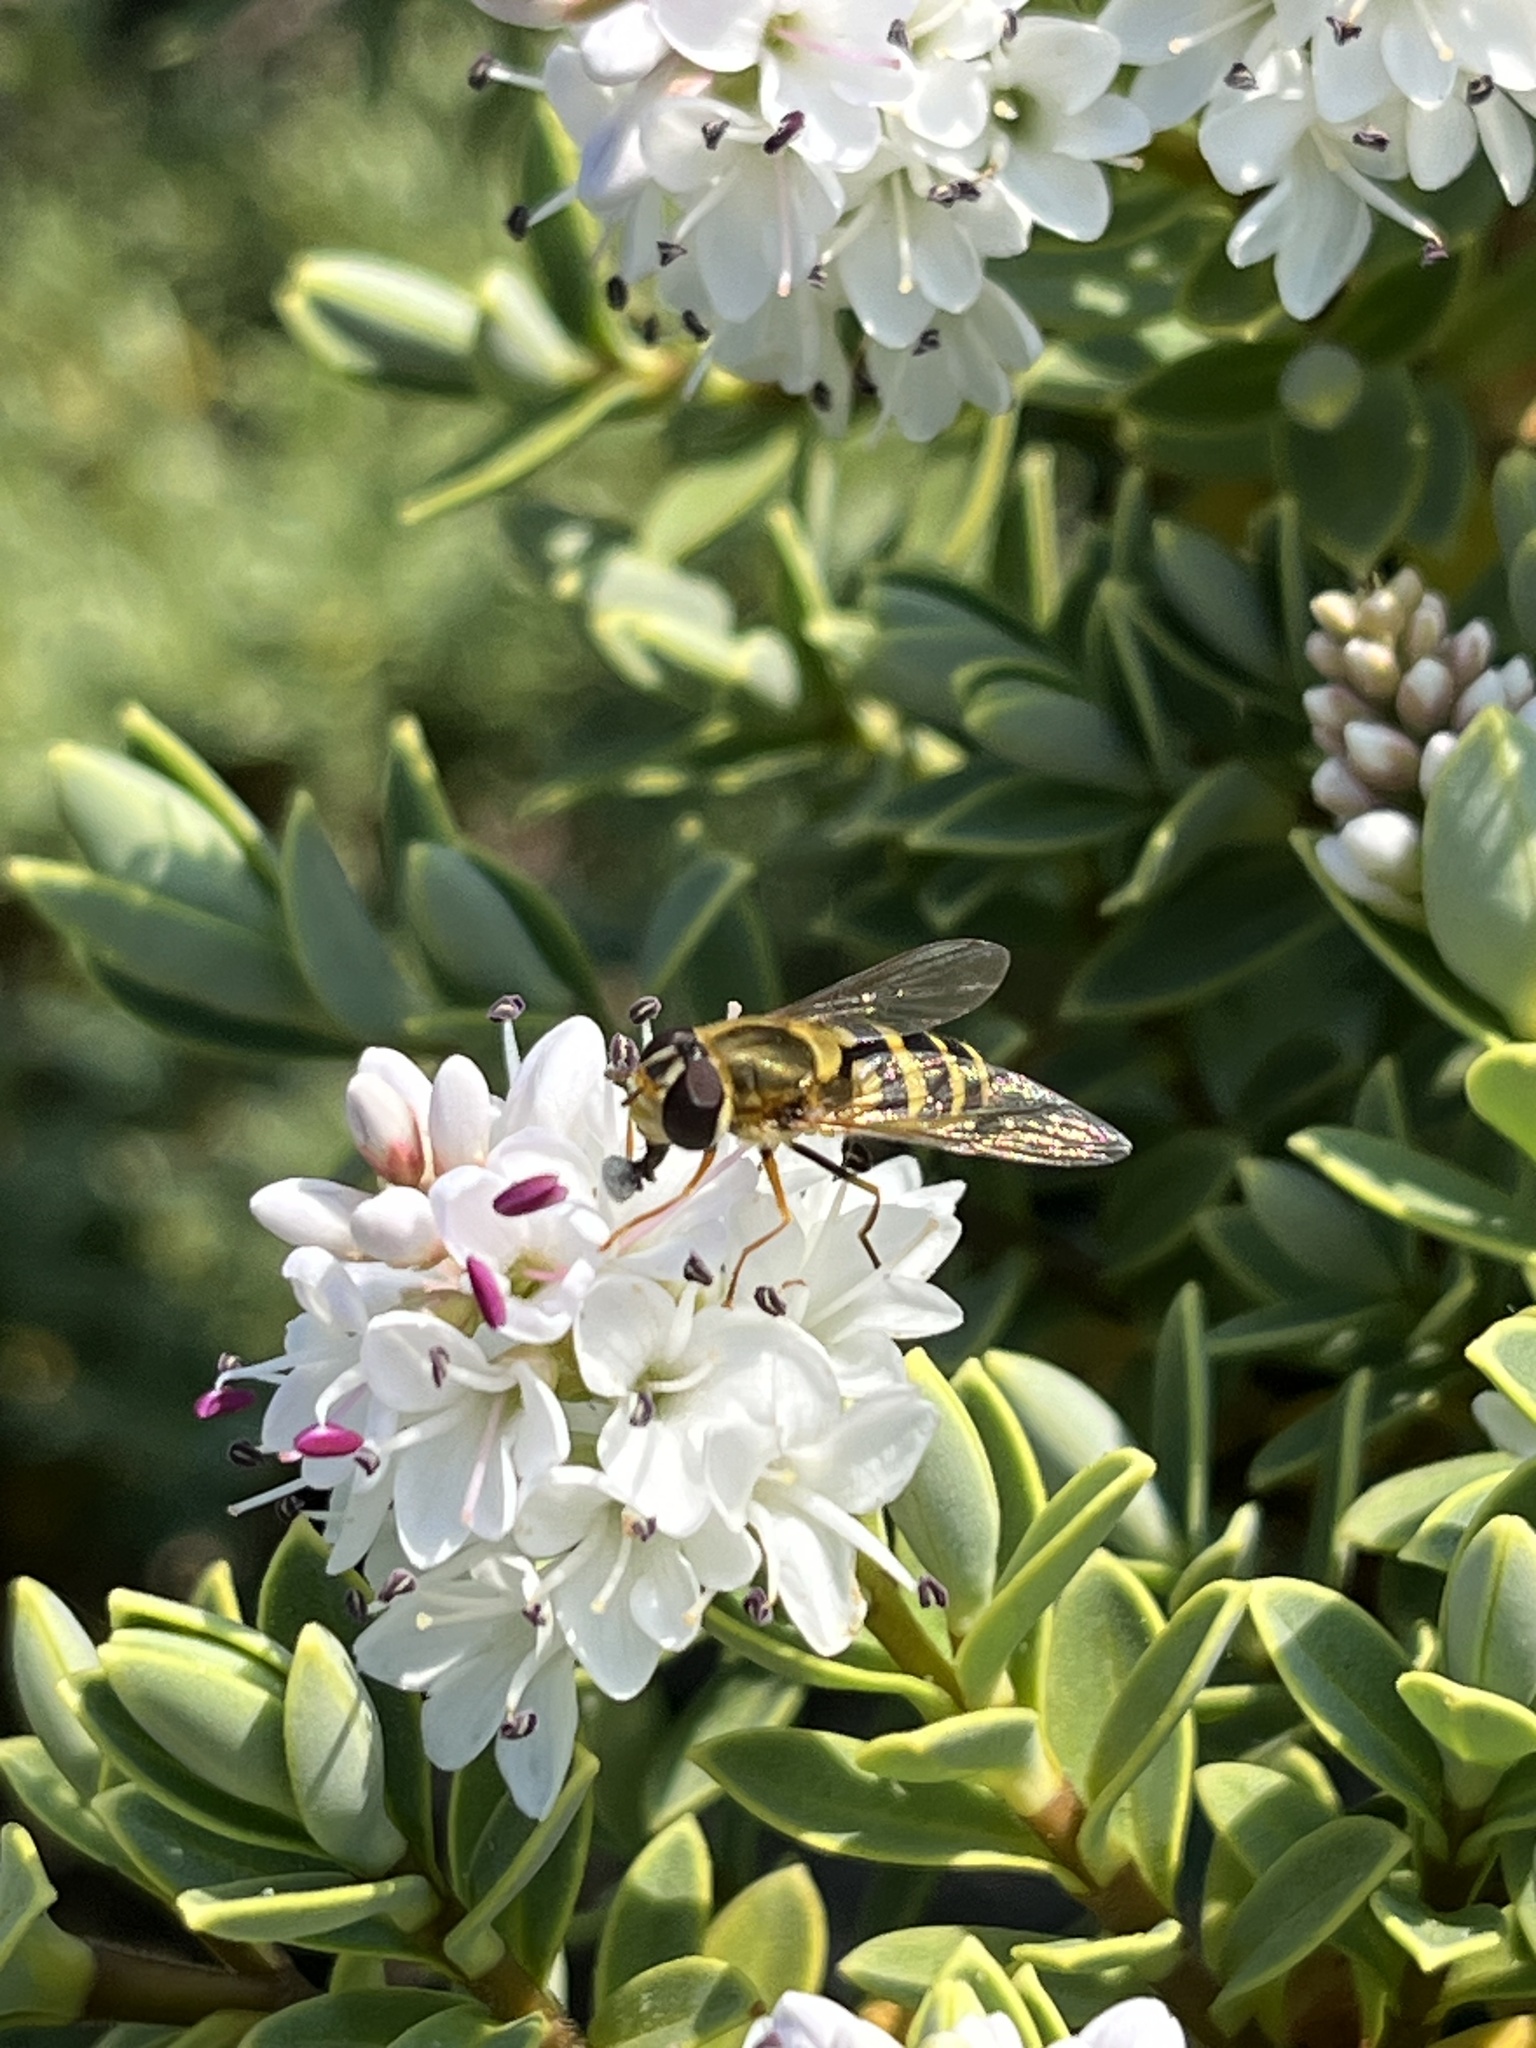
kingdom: Animalia
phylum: Arthropoda
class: Insecta
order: Diptera
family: Syrphidae
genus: Syrphus
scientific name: Syrphus
